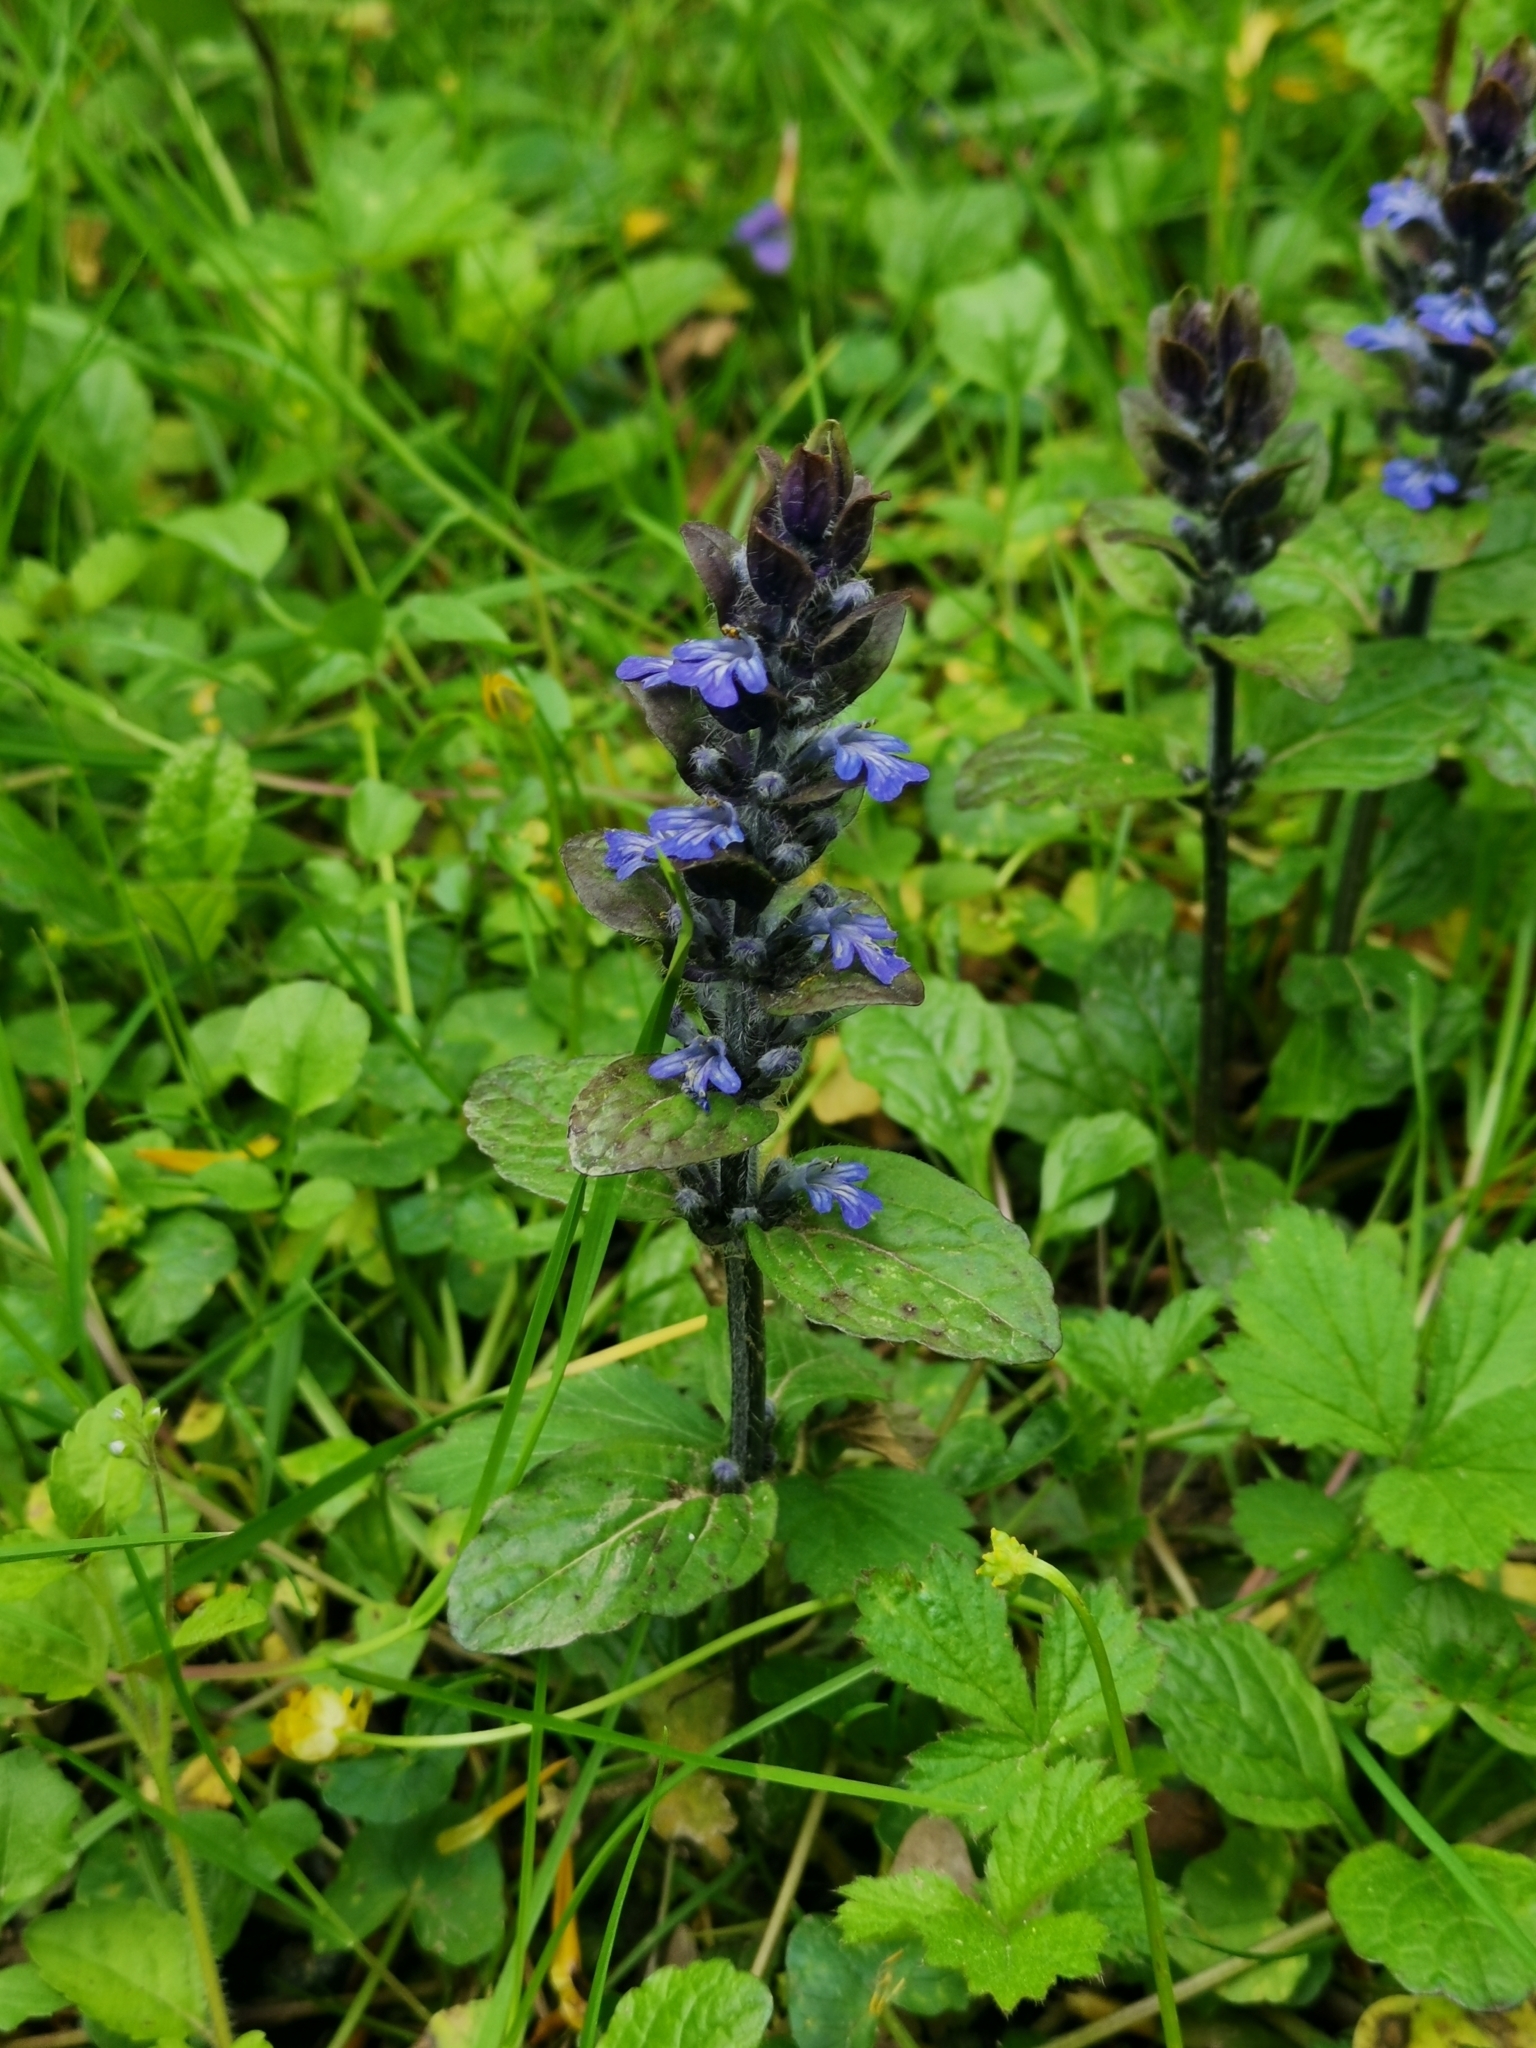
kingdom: Plantae
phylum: Tracheophyta
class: Magnoliopsida
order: Lamiales
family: Lamiaceae
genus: Ajuga
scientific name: Ajuga reptans
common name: Bugle
